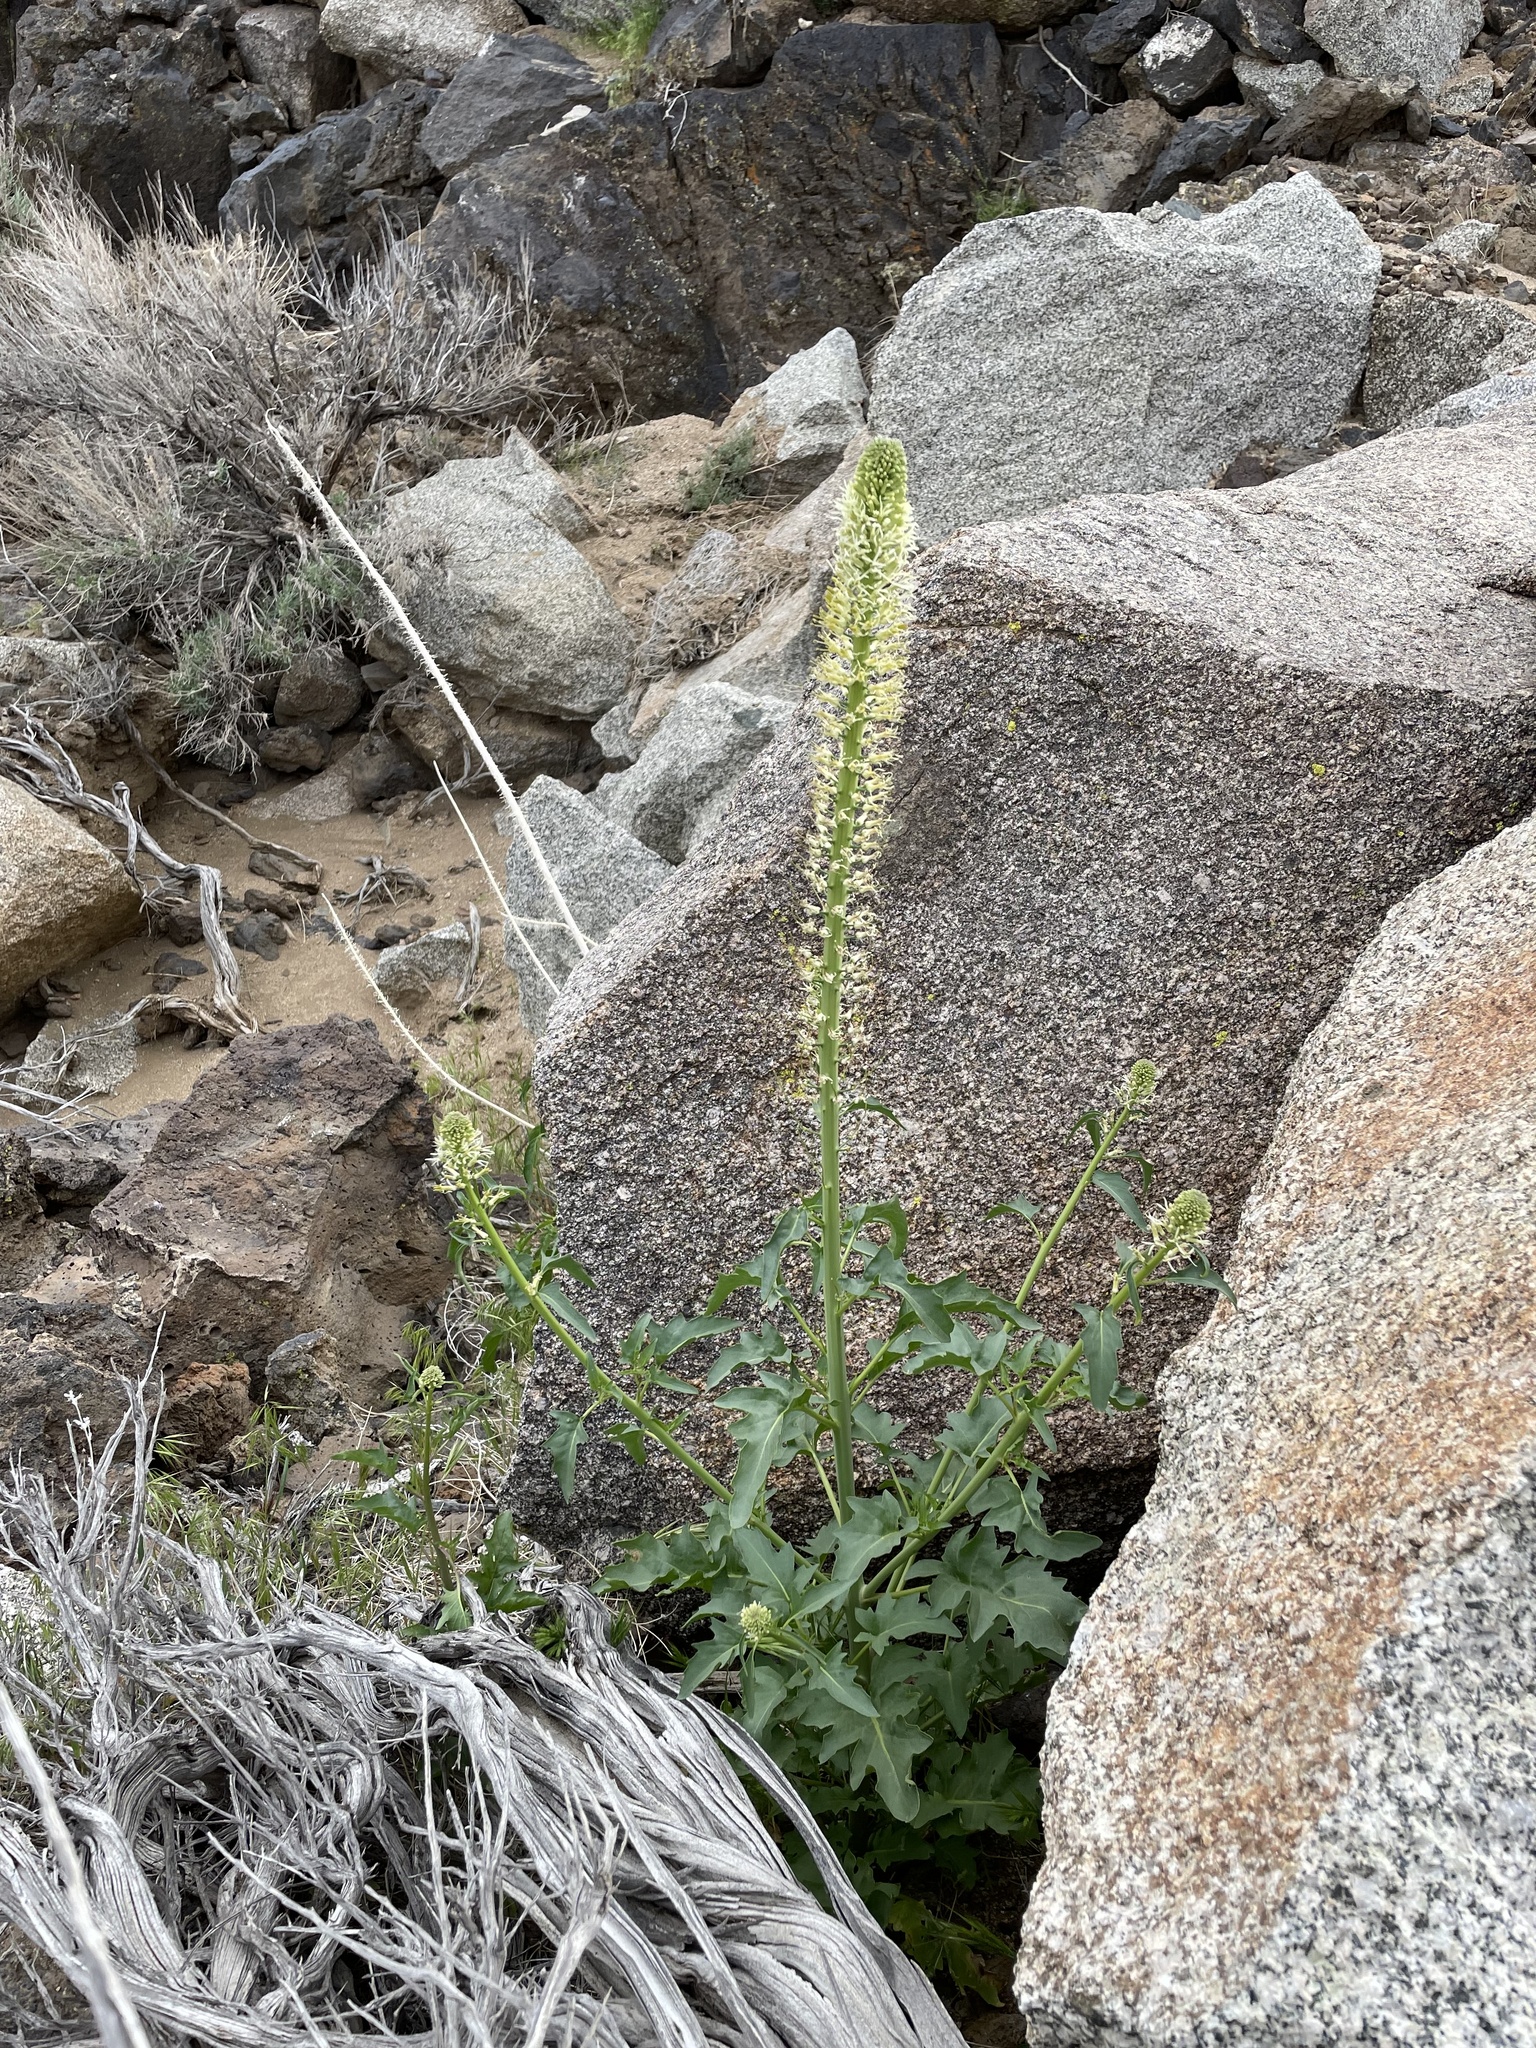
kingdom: Plantae
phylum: Tracheophyta
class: Magnoliopsida
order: Brassicales
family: Brassicaceae
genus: Thelypodium
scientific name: Thelypodium laciniatum
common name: Cut-leaved thelypody
